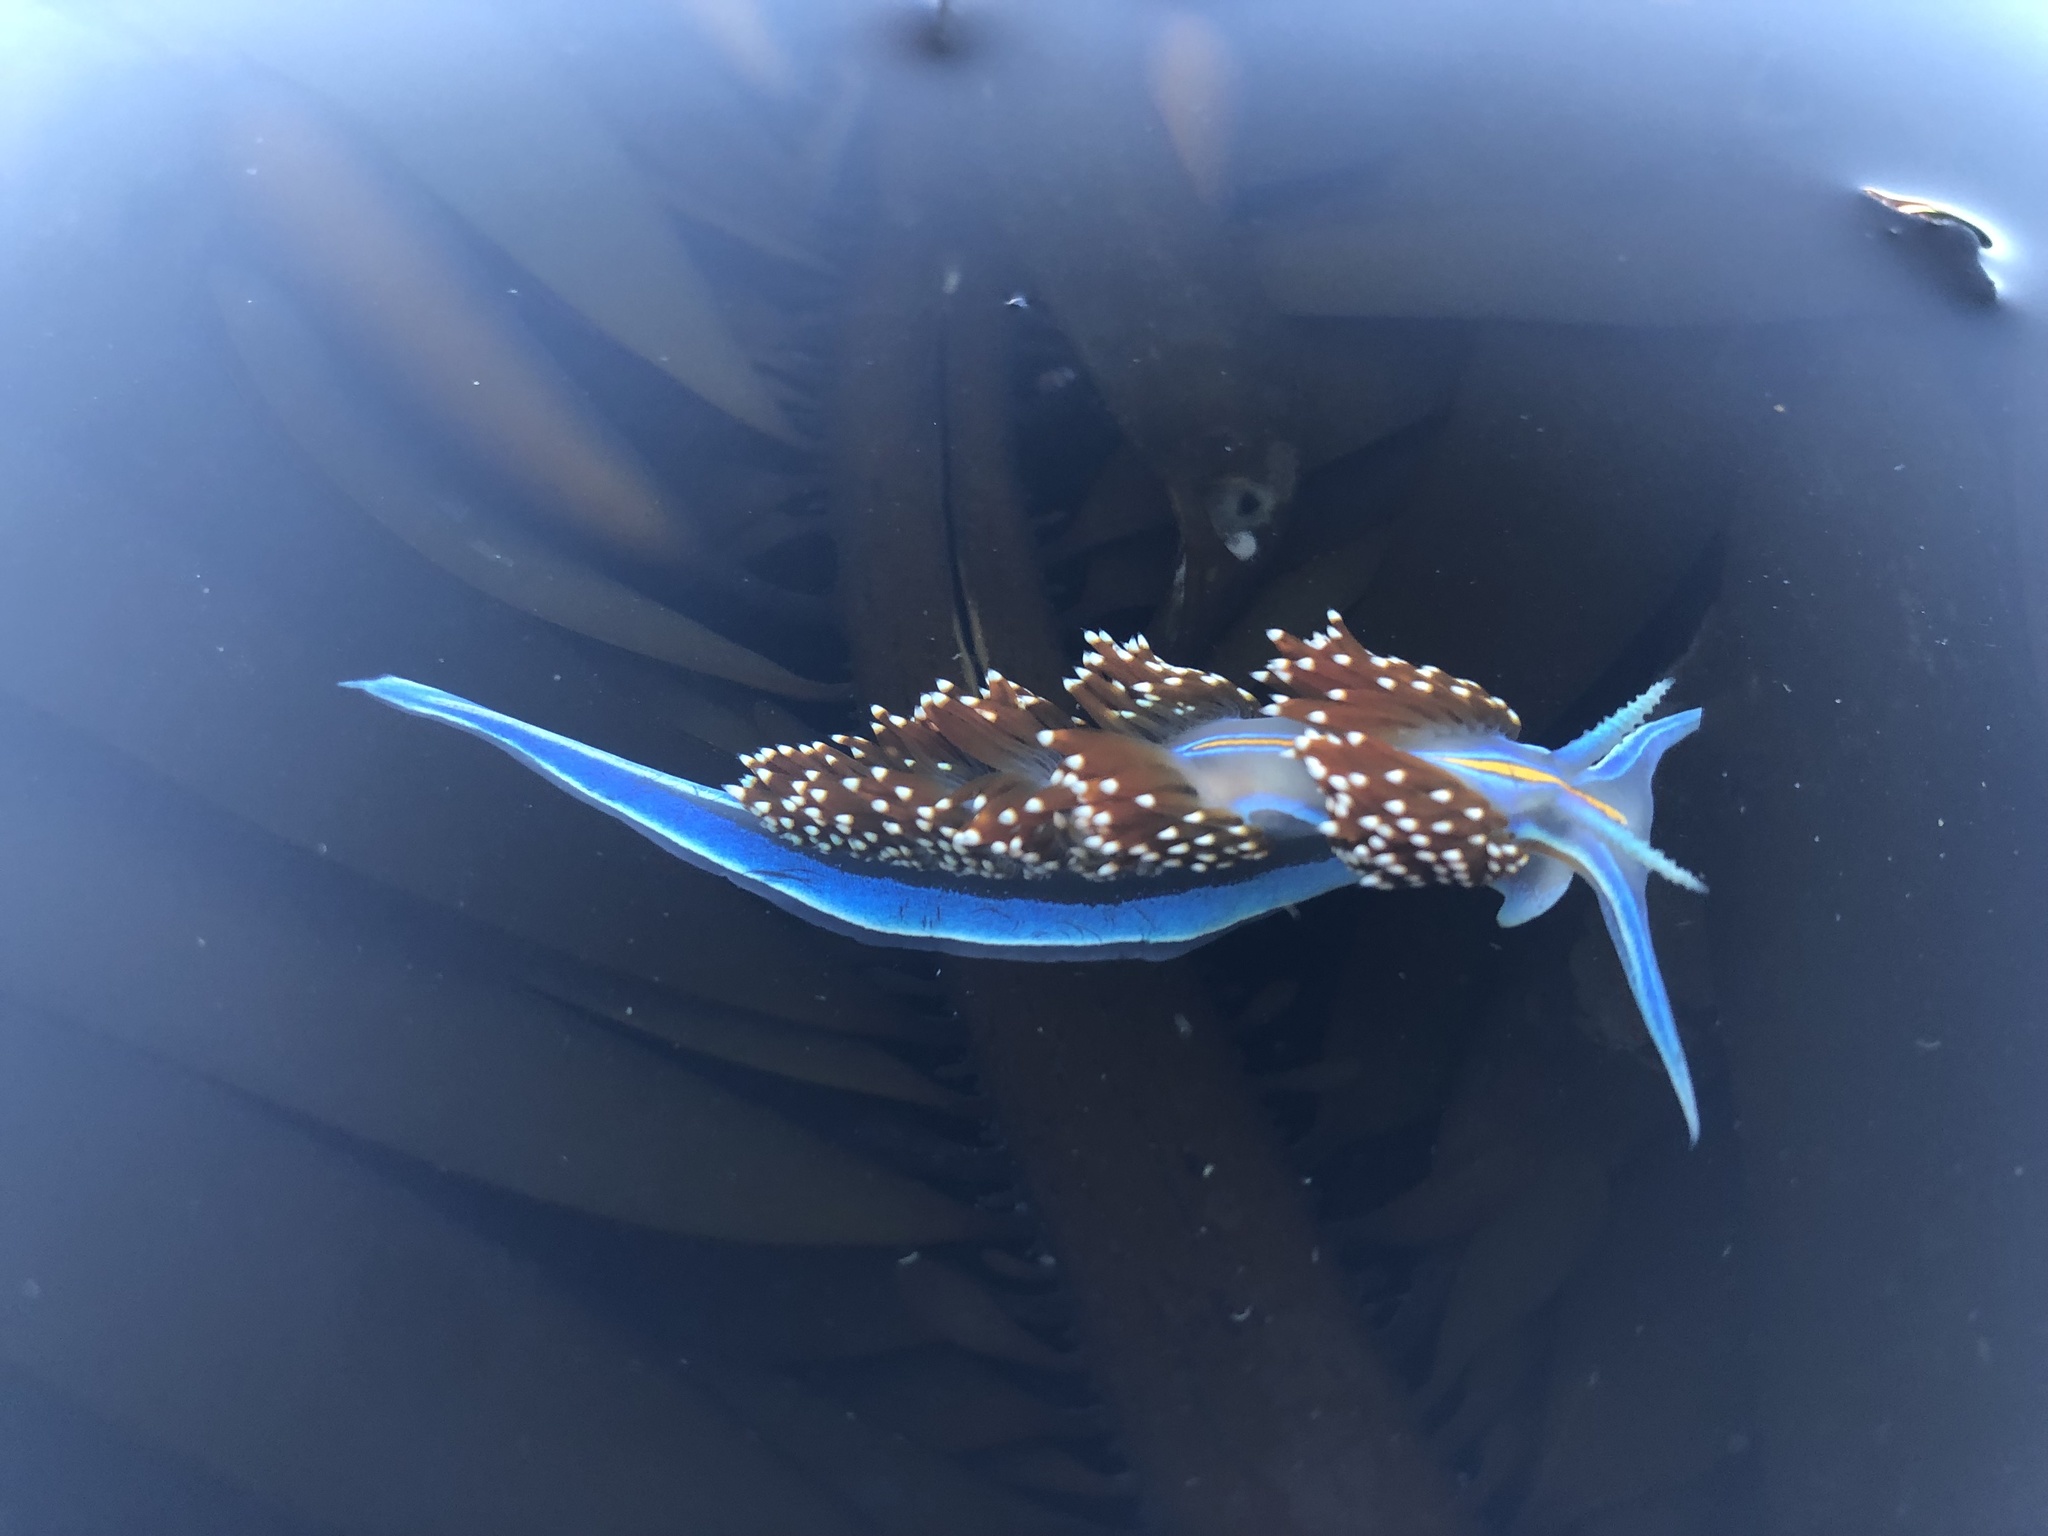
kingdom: Animalia
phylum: Mollusca
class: Gastropoda
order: Nudibranchia
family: Myrrhinidae
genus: Hermissenda
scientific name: Hermissenda opalescens
